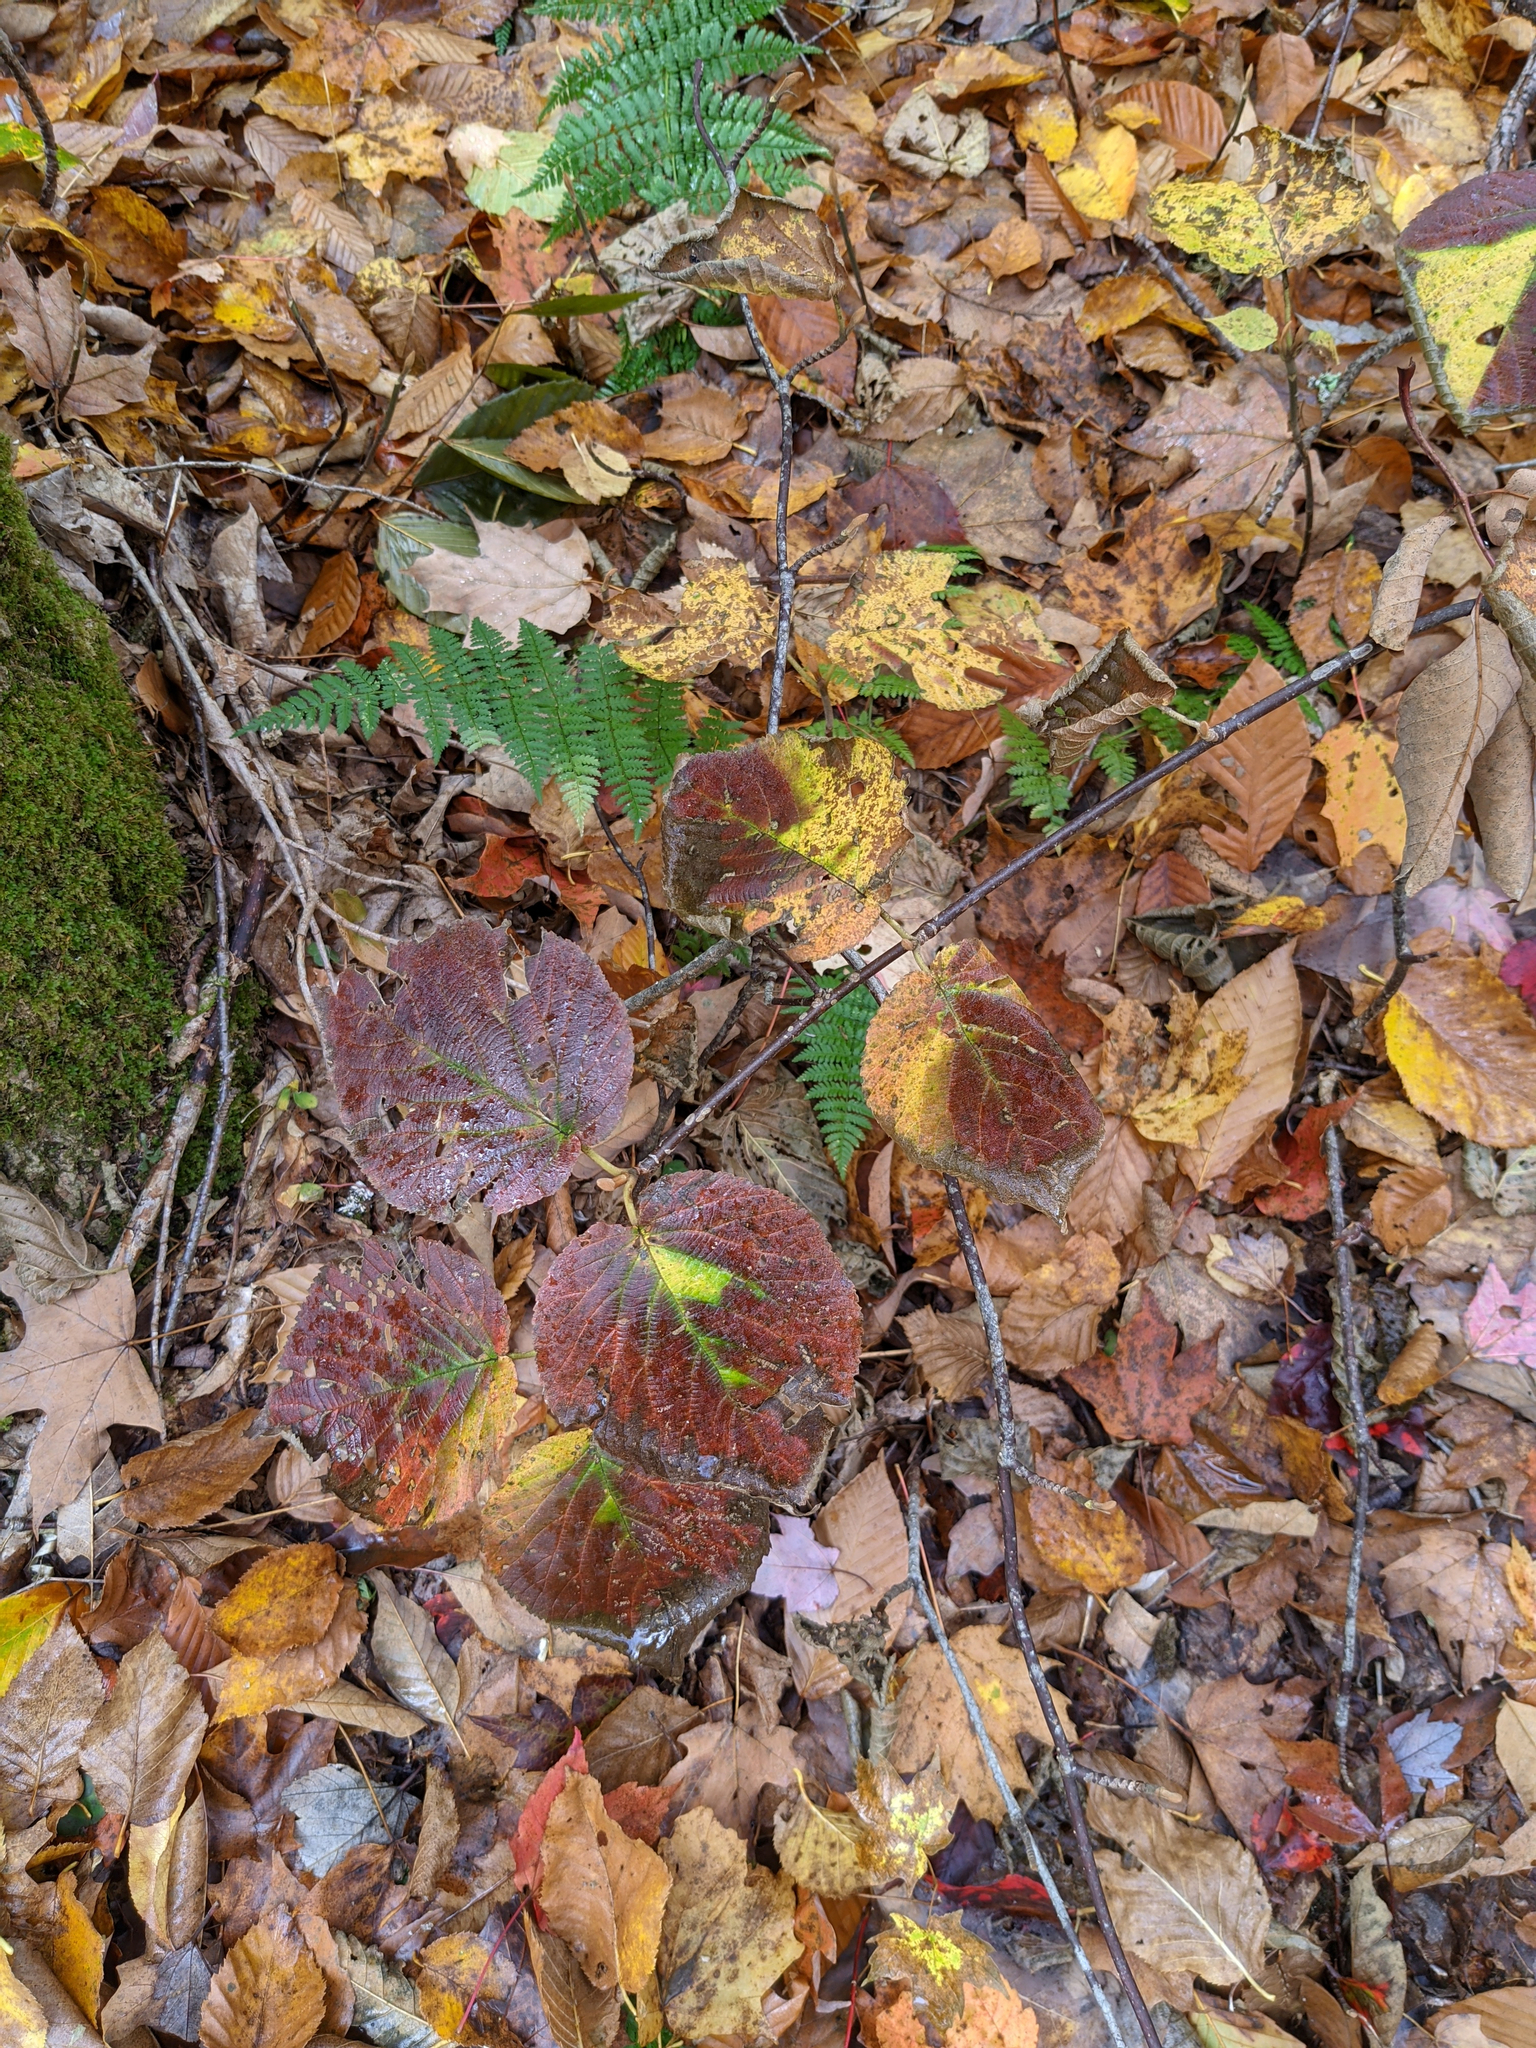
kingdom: Plantae
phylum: Tracheophyta
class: Magnoliopsida
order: Dipsacales
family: Viburnaceae
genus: Viburnum
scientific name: Viburnum lantanoides
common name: Hobblebush
